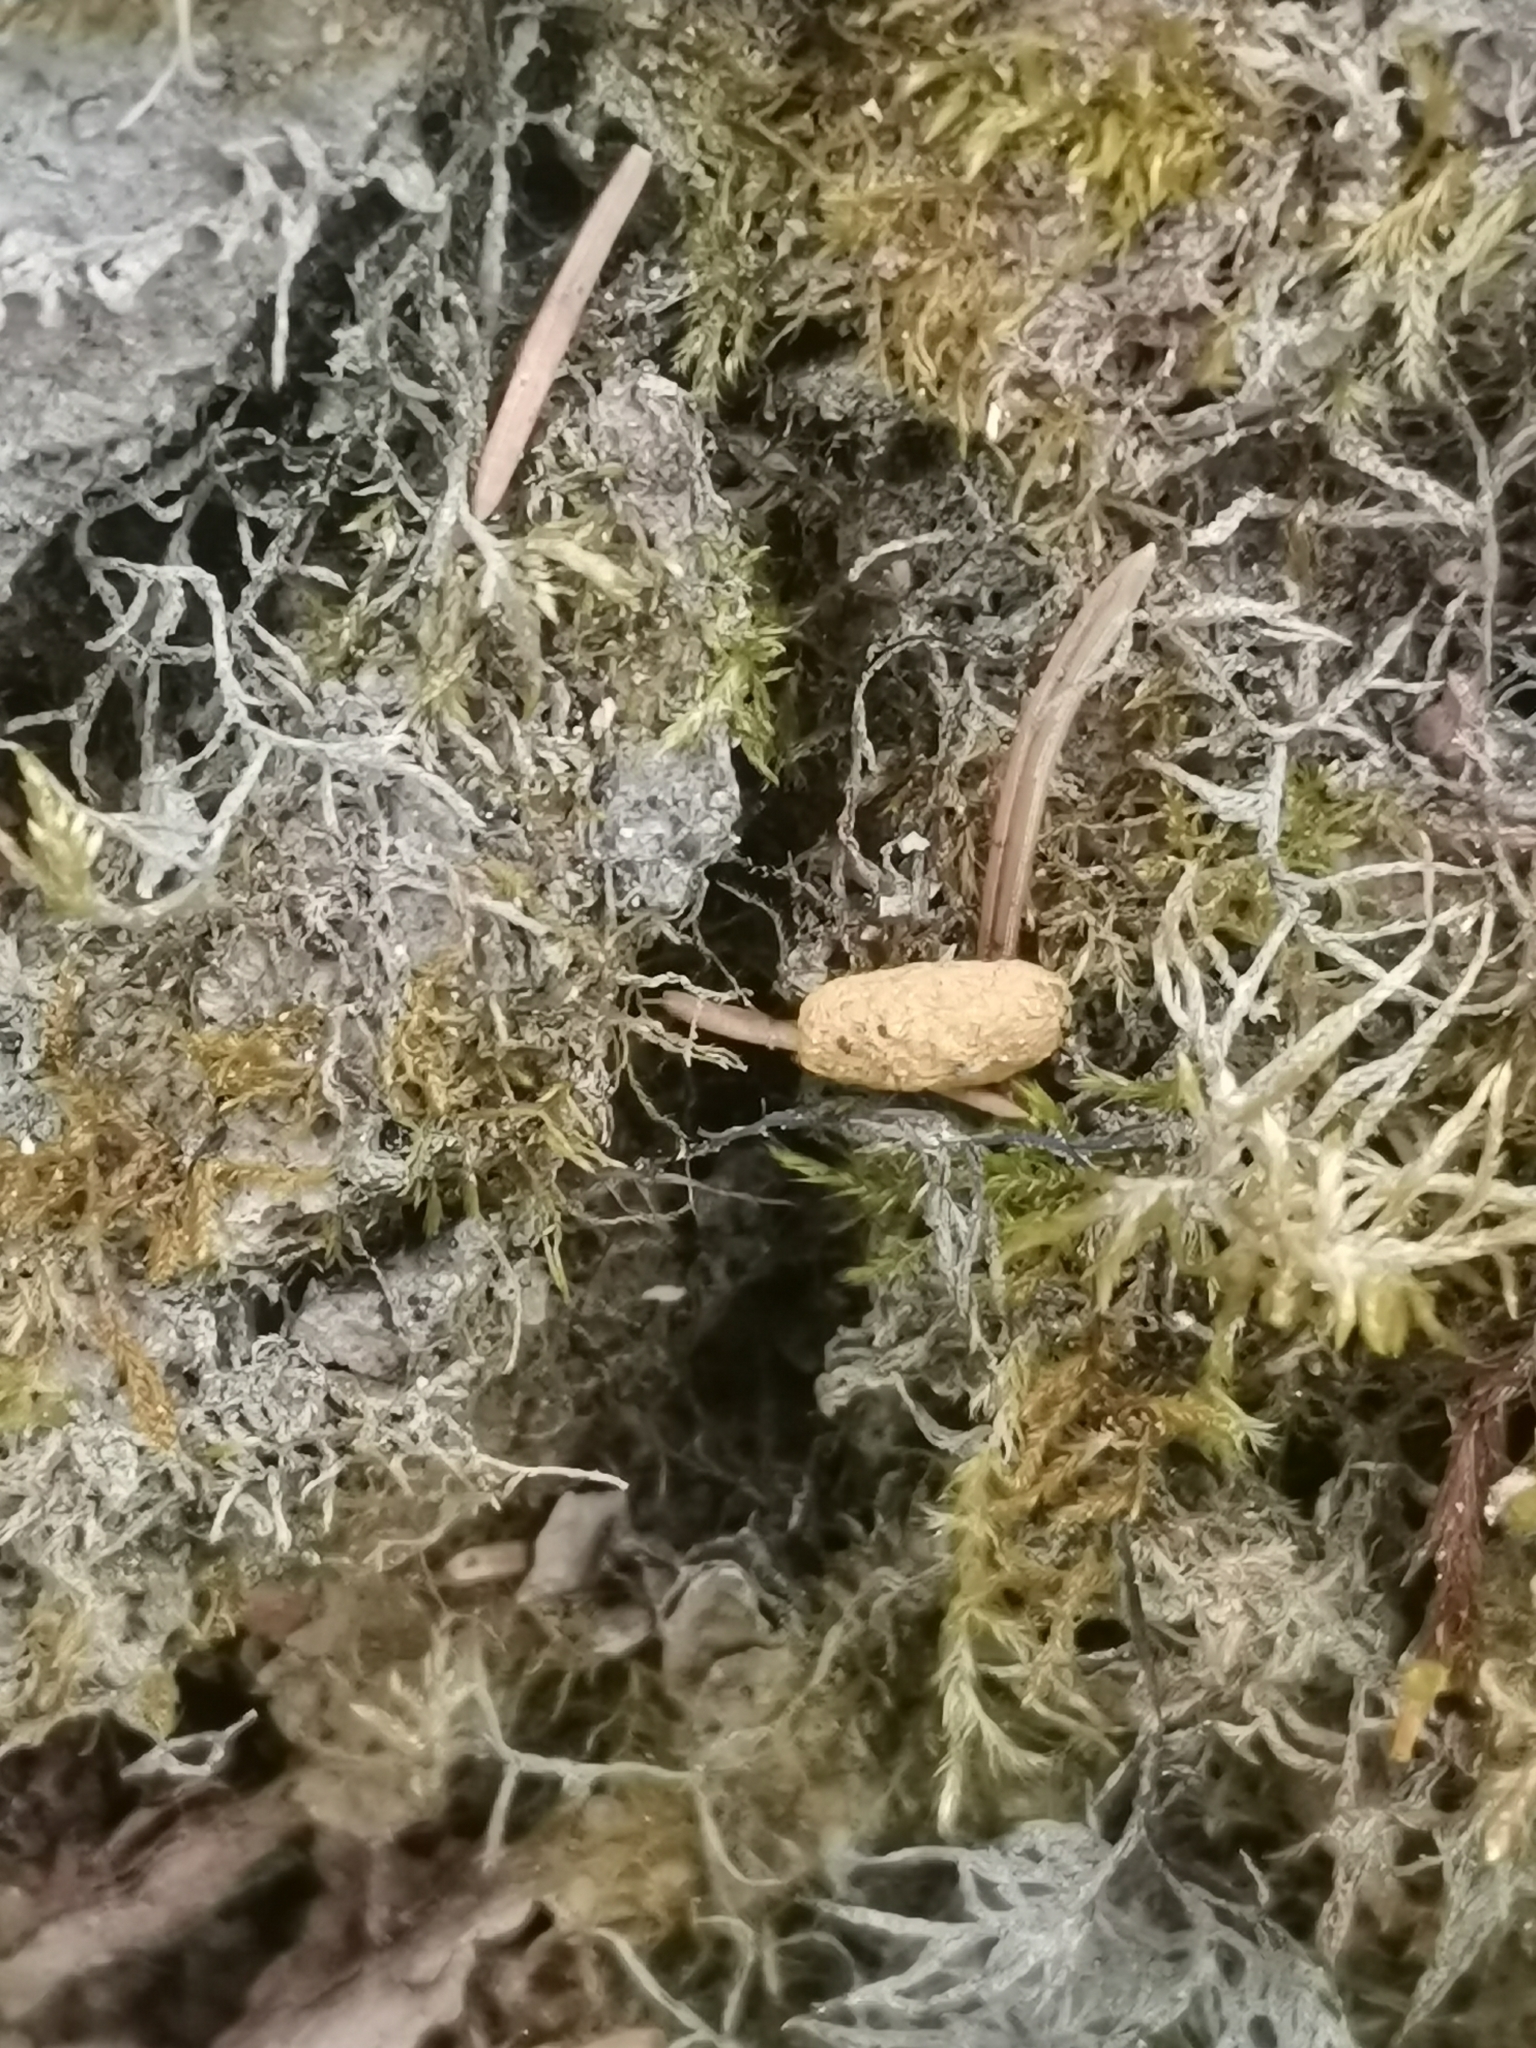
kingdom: Animalia
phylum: Chordata
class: Mammalia
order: Rodentia
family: Sciuridae
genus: Pteromys
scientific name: Pteromys volans
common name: Siberian flying squirrel
